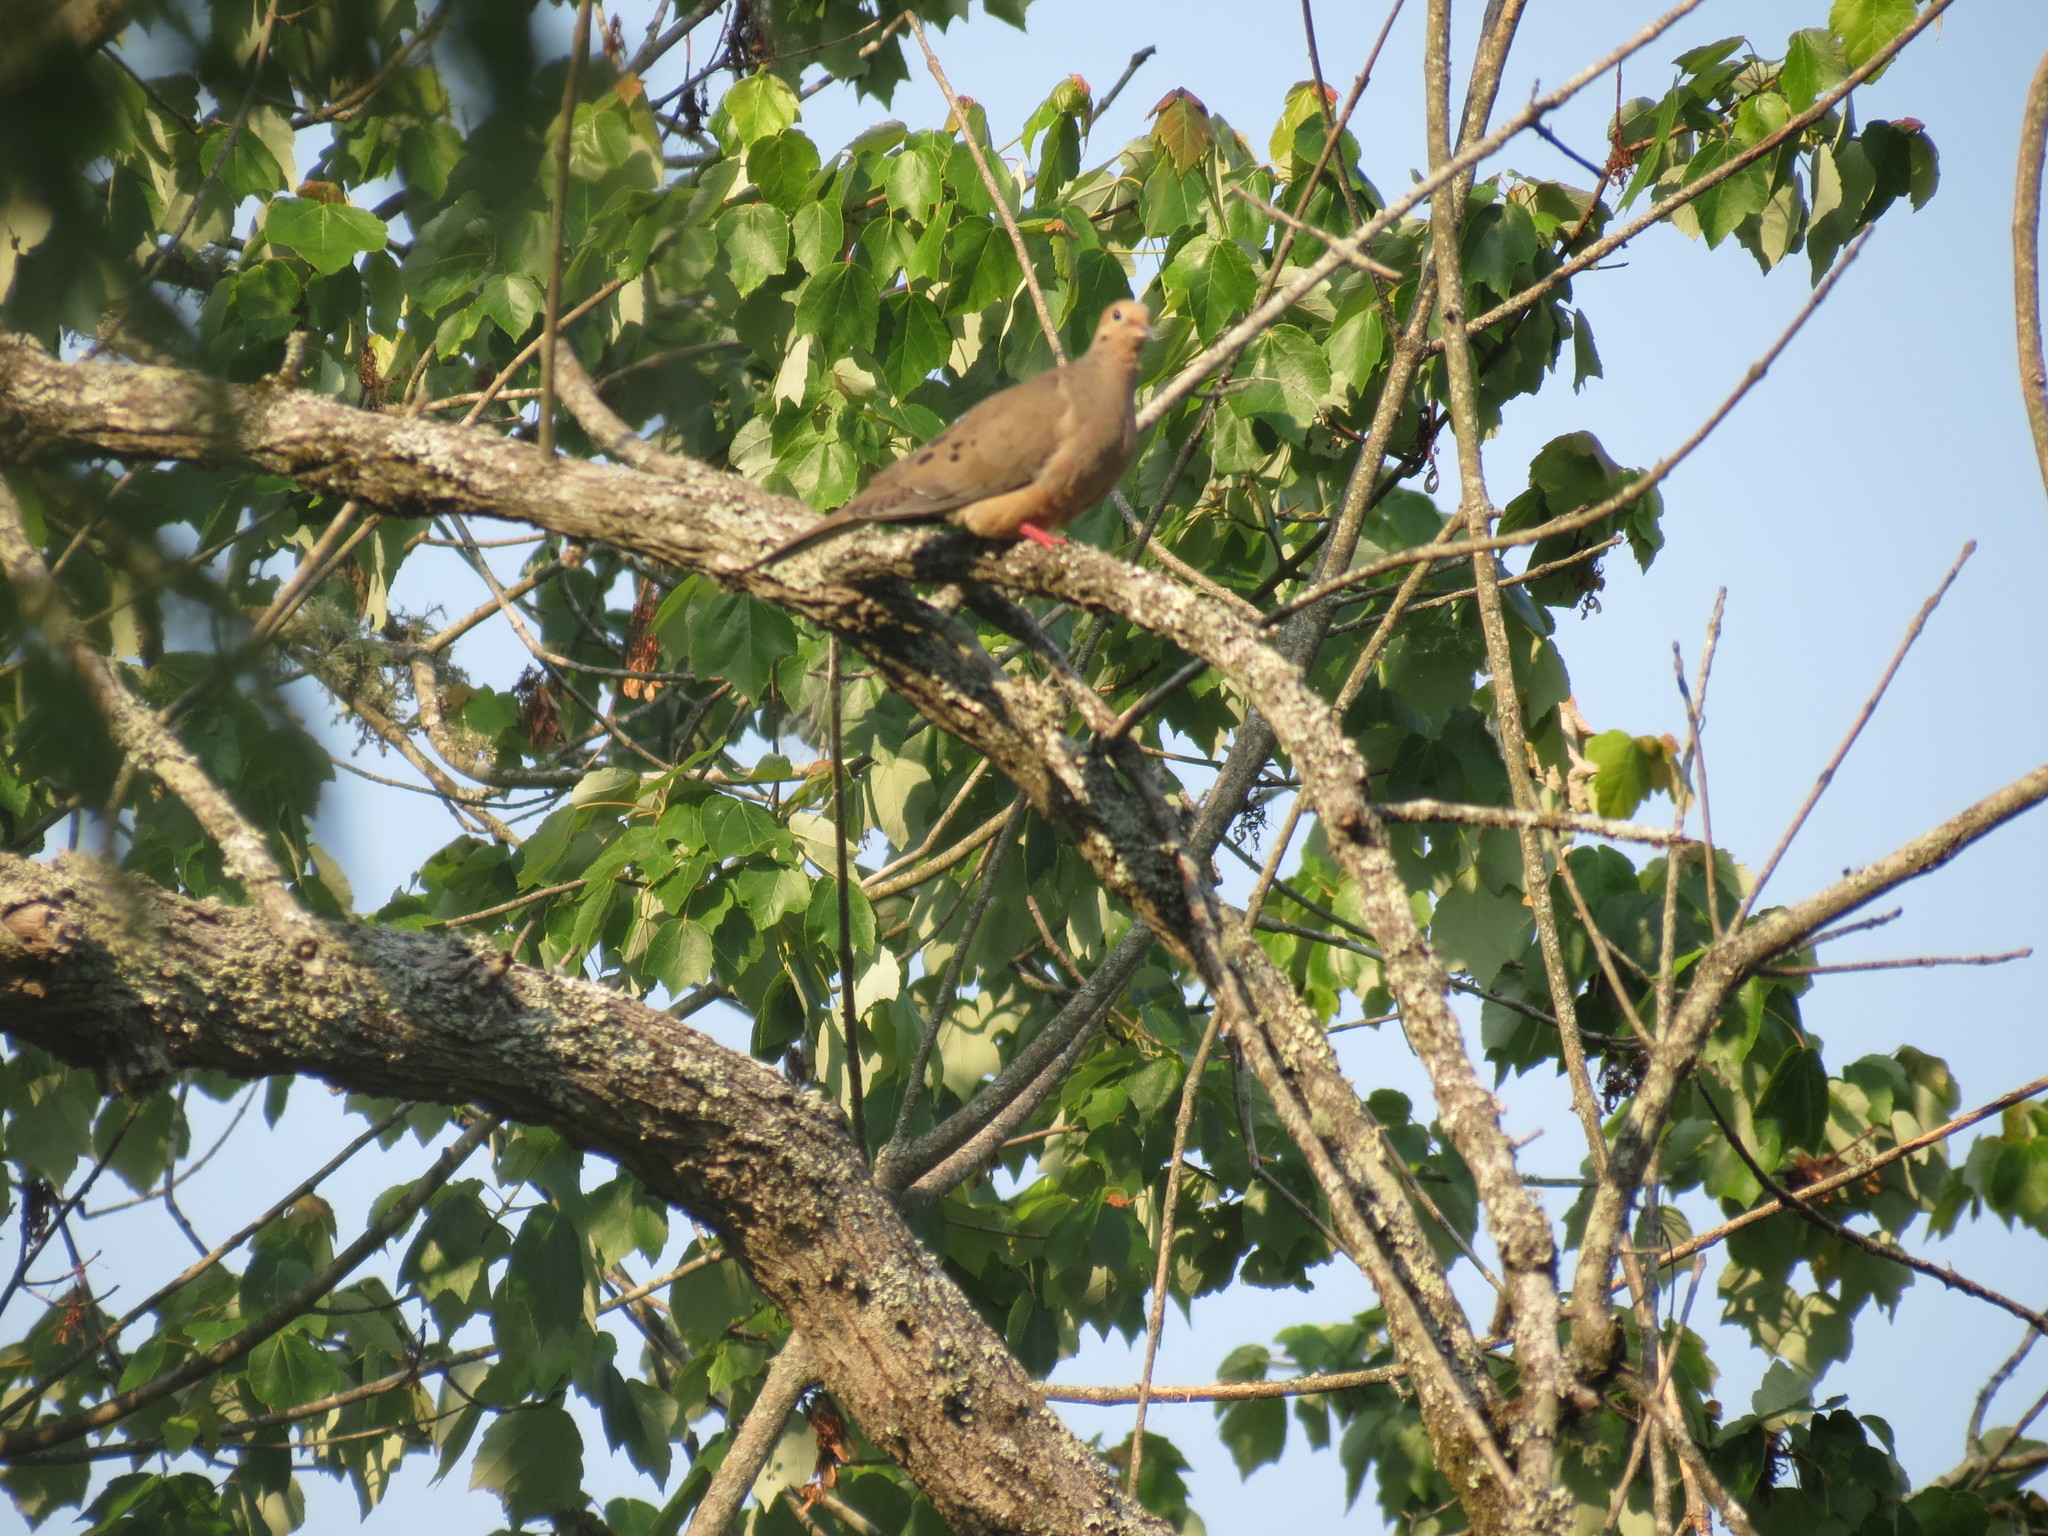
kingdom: Animalia
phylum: Chordata
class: Aves
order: Columbiformes
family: Columbidae
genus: Zenaida
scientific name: Zenaida macroura
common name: Mourning dove
